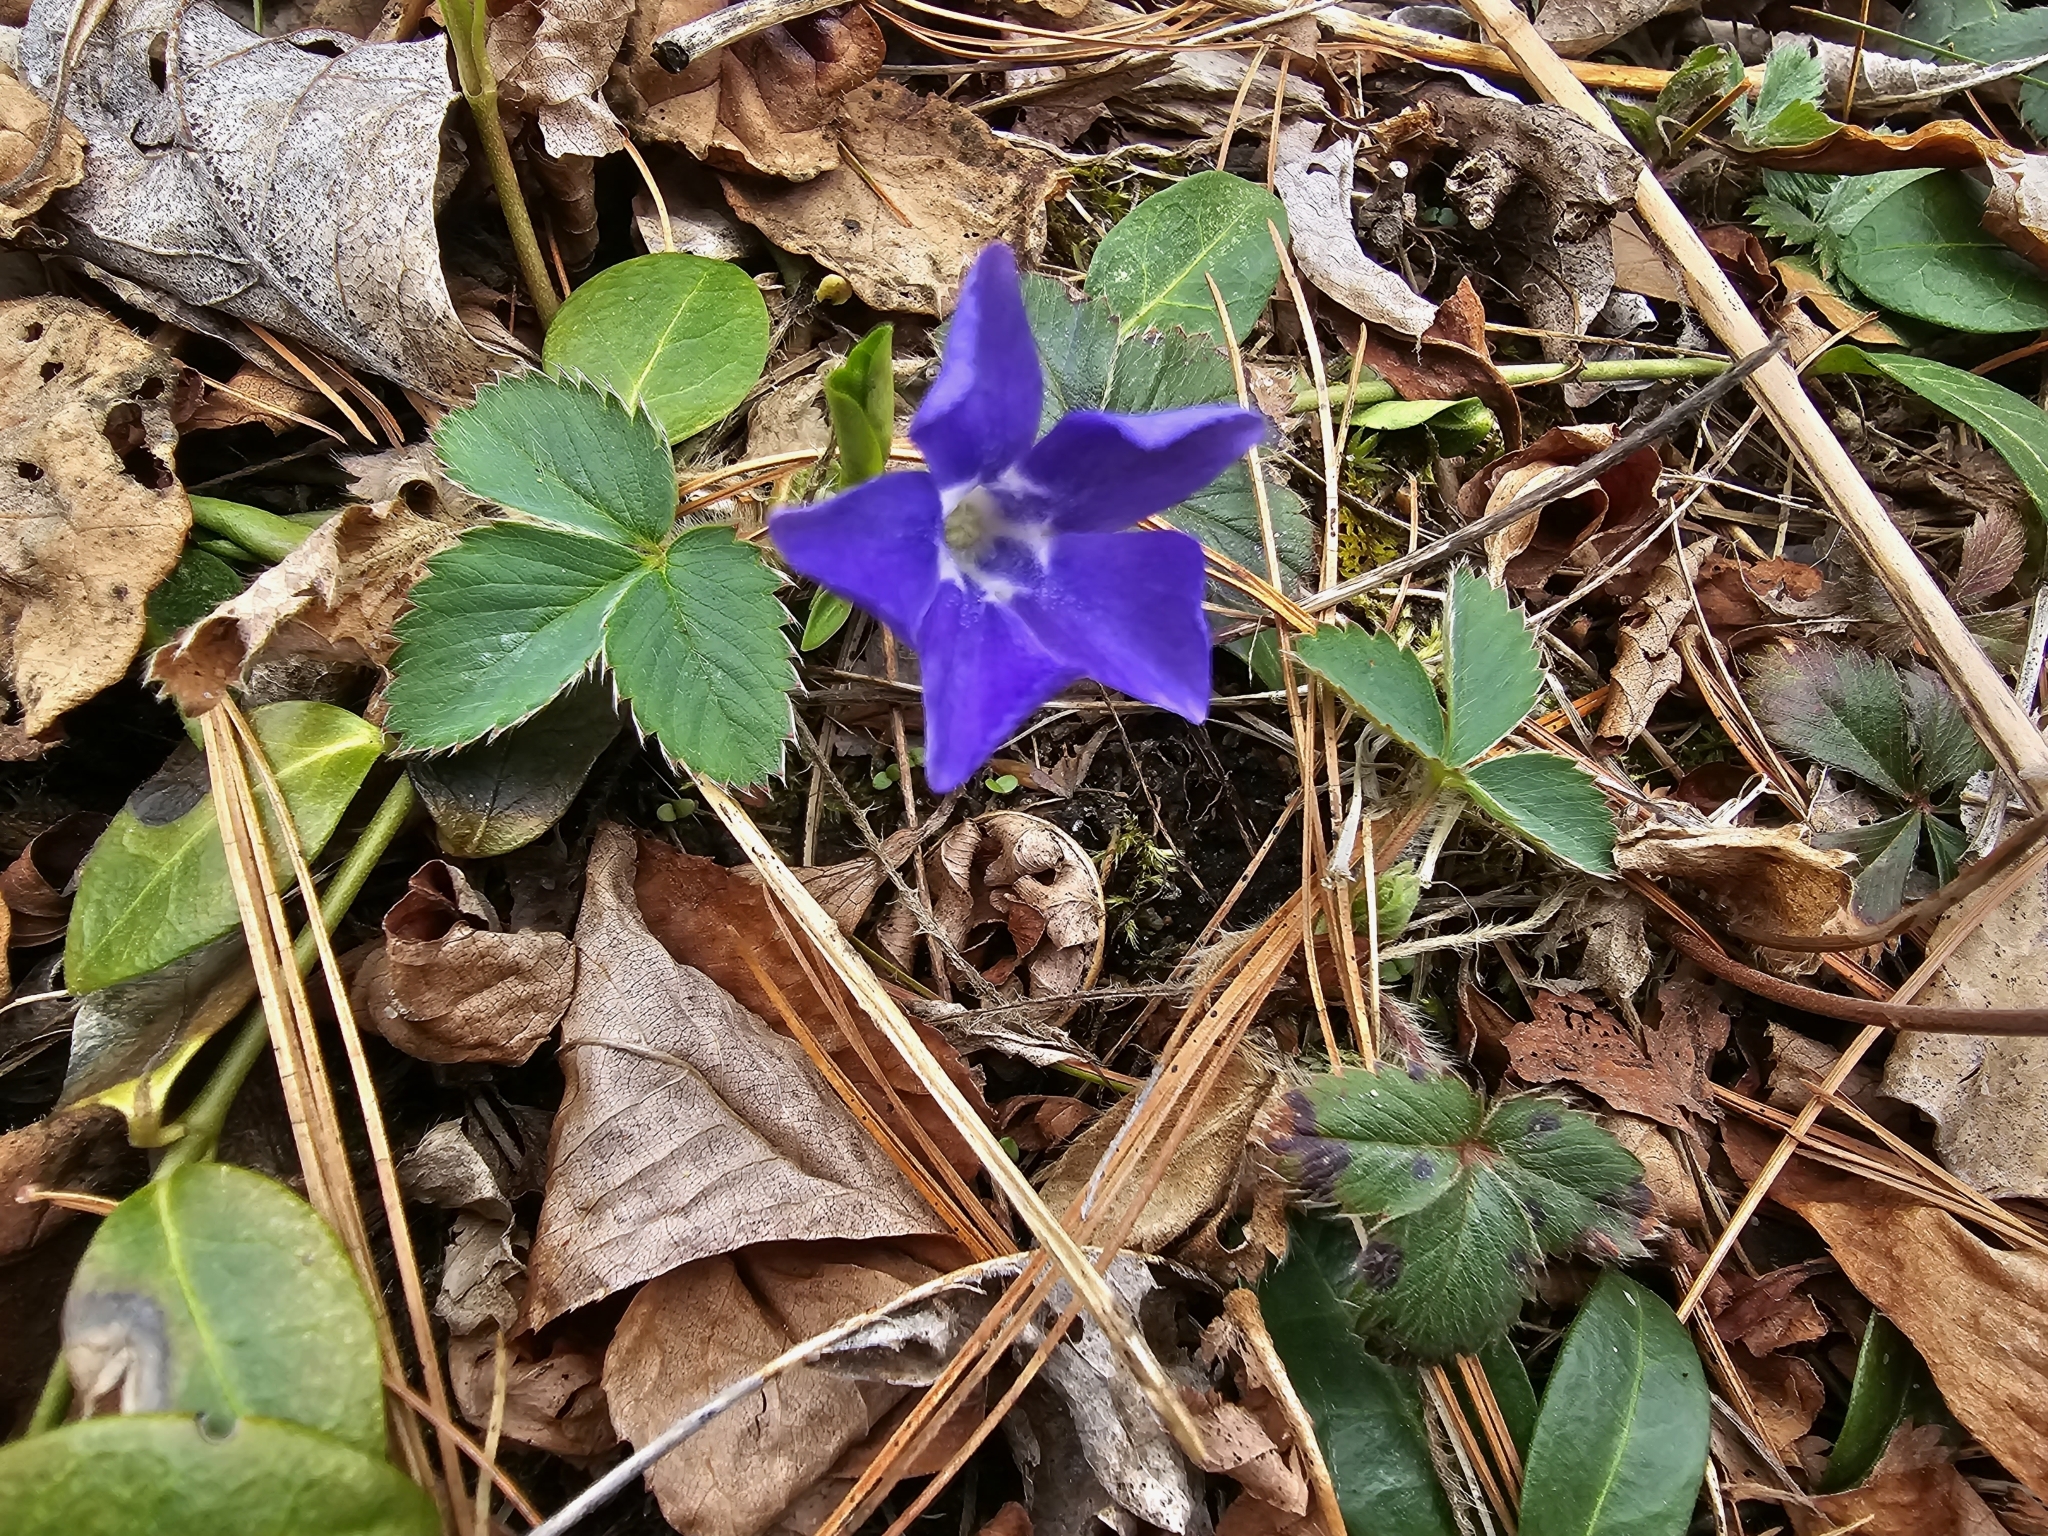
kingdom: Plantae
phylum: Tracheophyta
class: Magnoliopsida
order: Gentianales
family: Apocynaceae
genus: Vinca
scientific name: Vinca minor
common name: Lesser periwinkle
